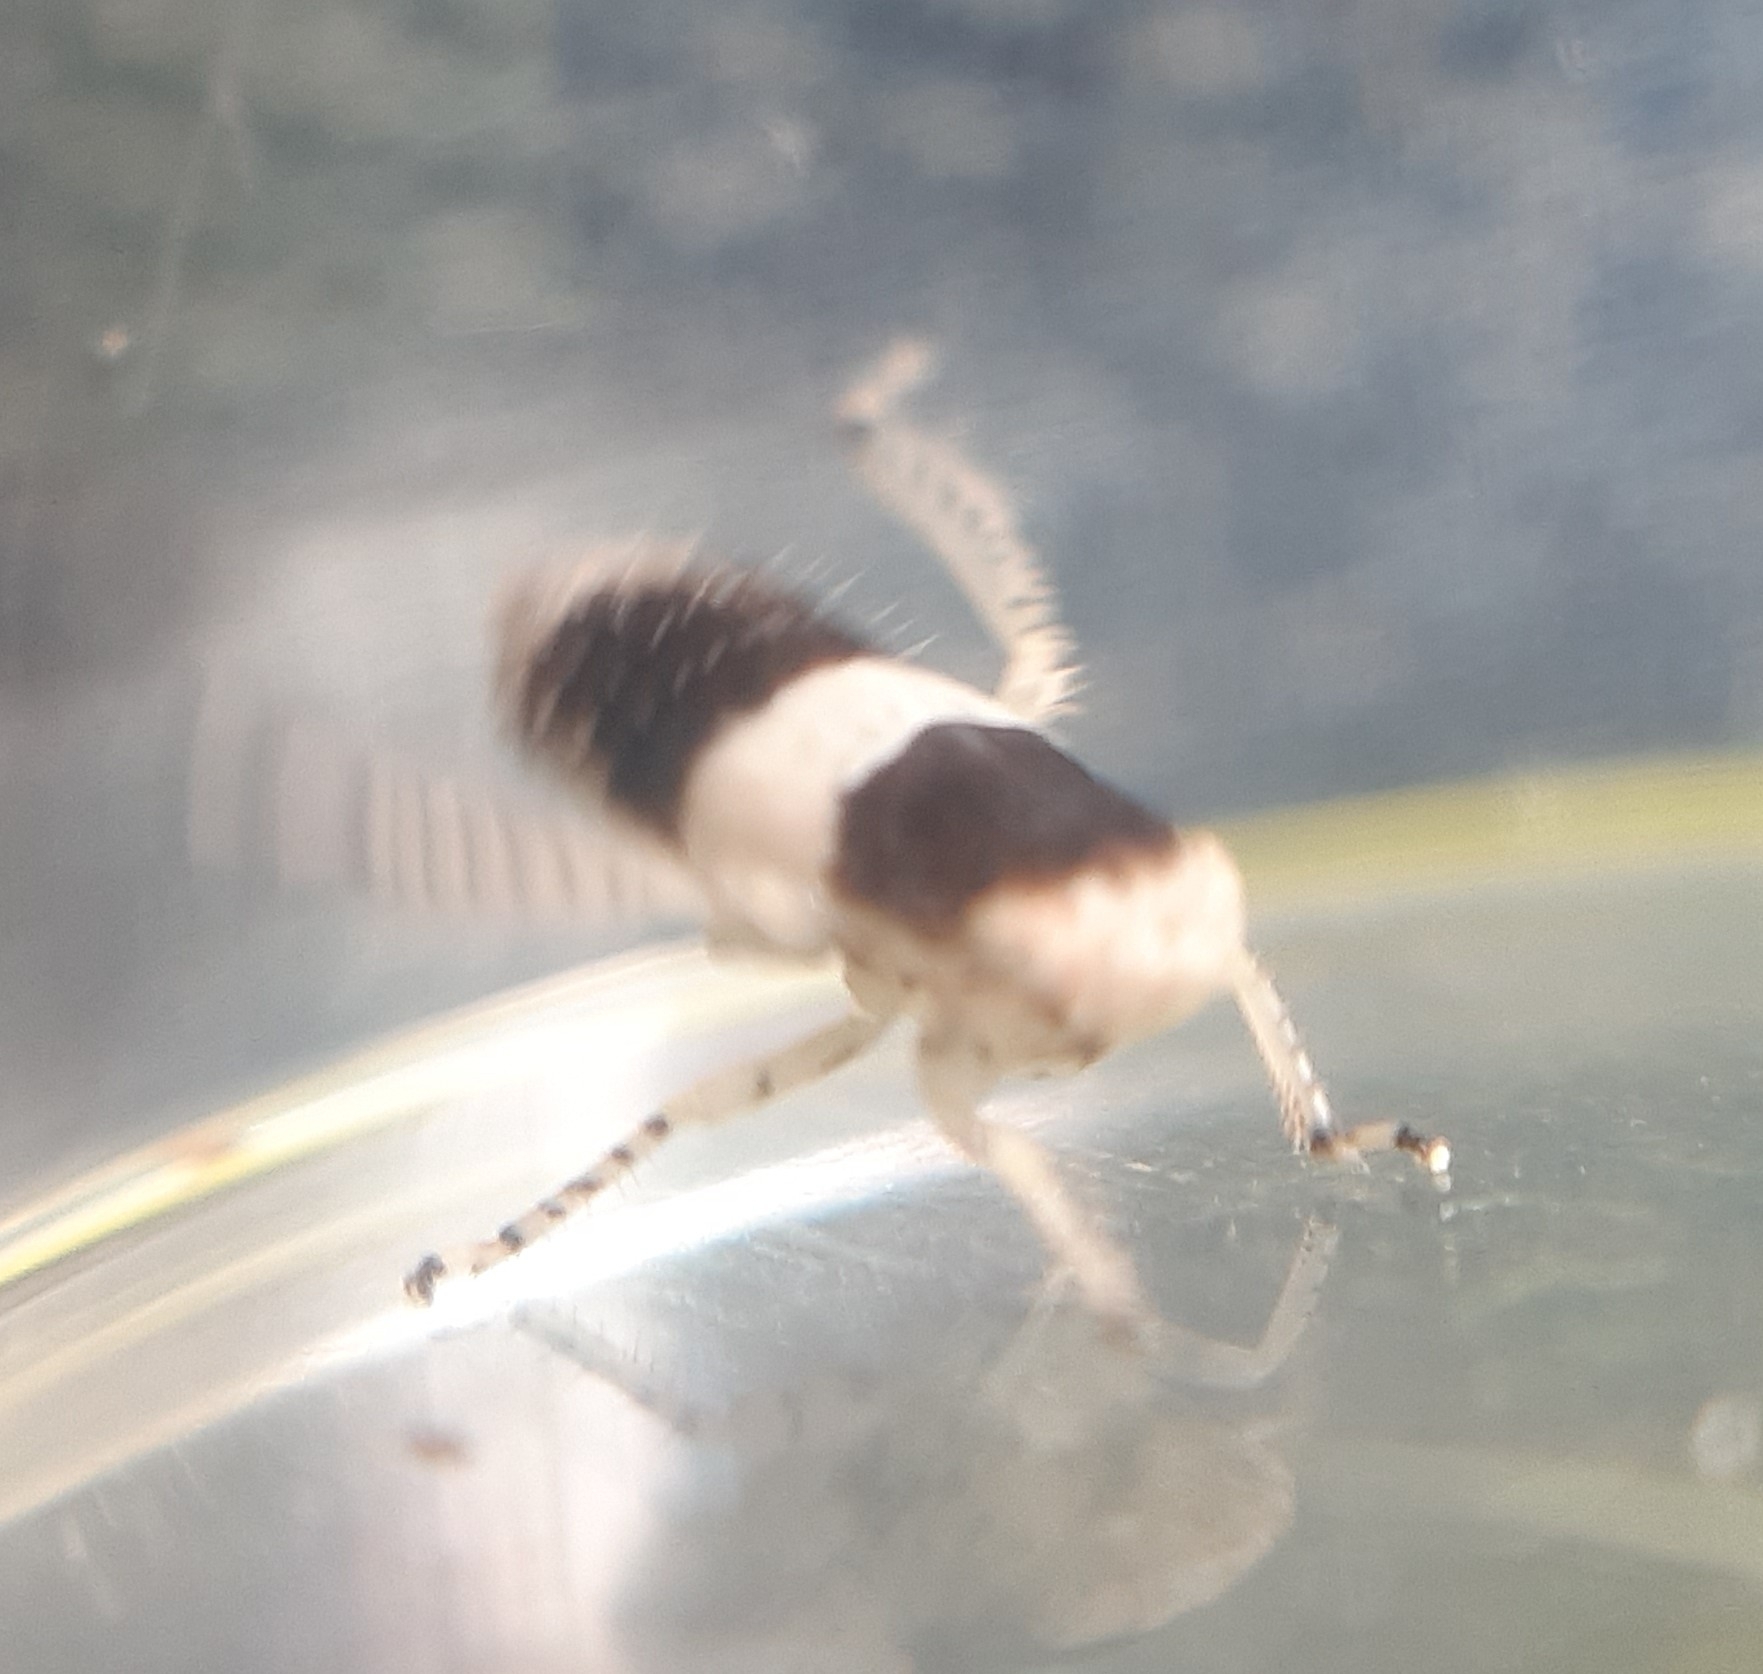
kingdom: Animalia
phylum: Arthropoda
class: Insecta
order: Hemiptera
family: Cicadellidae
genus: Allygidius
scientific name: Allygidius atomarius
